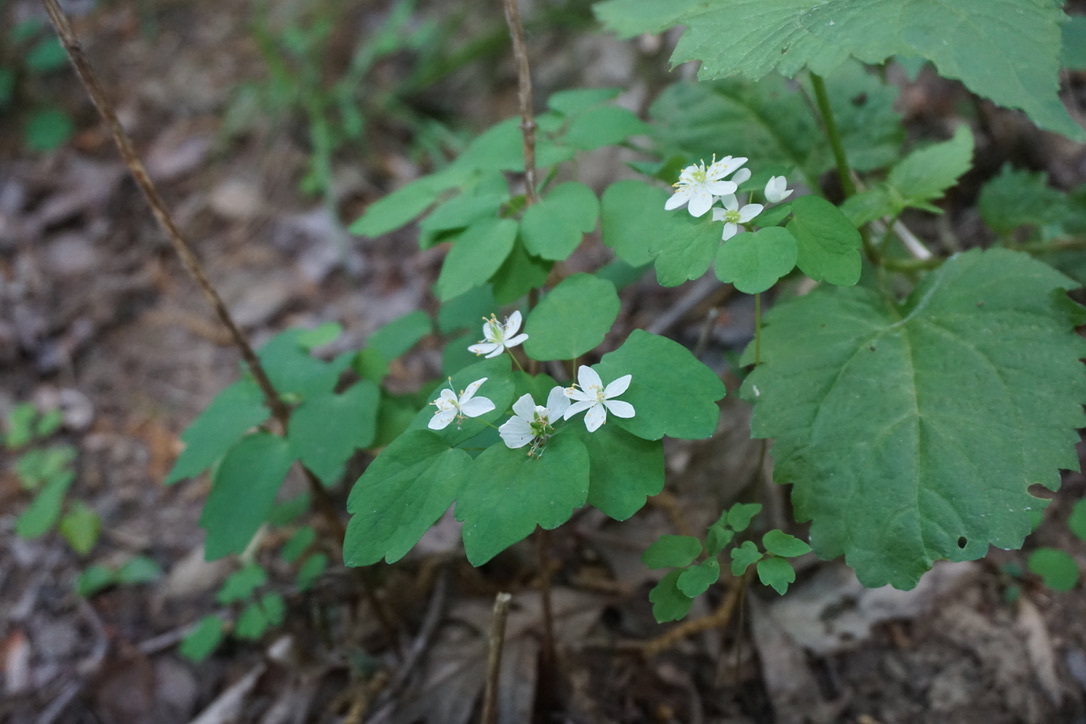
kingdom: Plantae
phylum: Tracheophyta
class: Magnoliopsida
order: Ranunculales
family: Ranunculaceae
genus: Thalictrum
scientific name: Thalictrum thalictroides
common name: Rue-anemone
